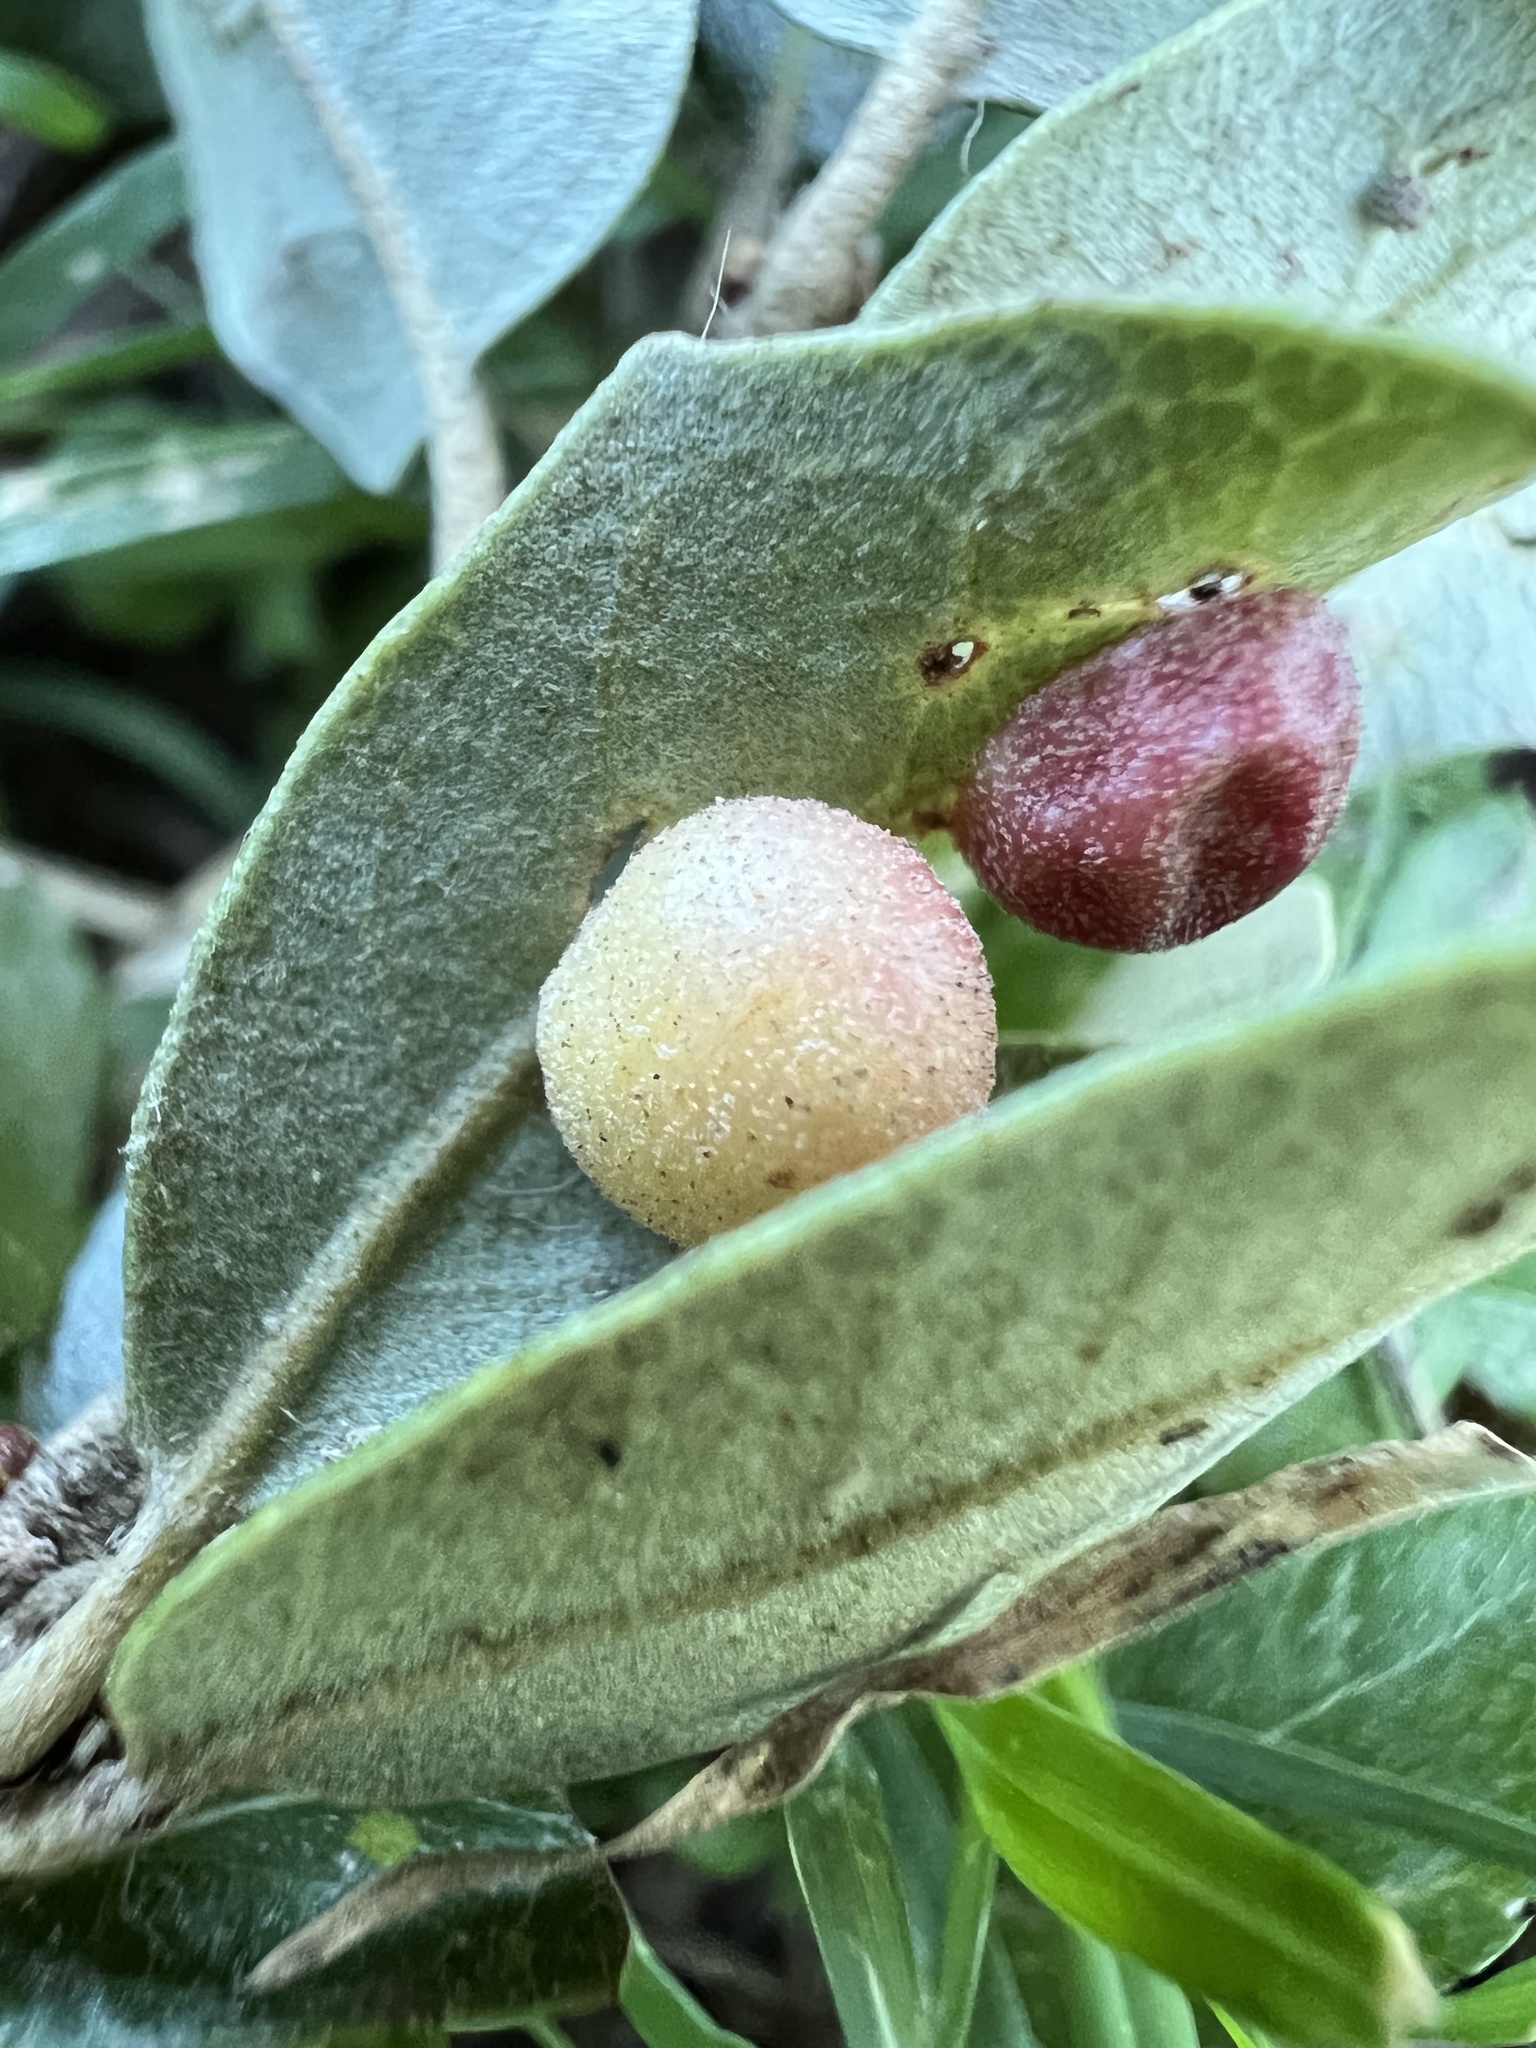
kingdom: Animalia
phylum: Arthropoda
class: Insecta
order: Hymenoptera
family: Cynipidae
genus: Belonocnema
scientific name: Belonocnema kinseyi
